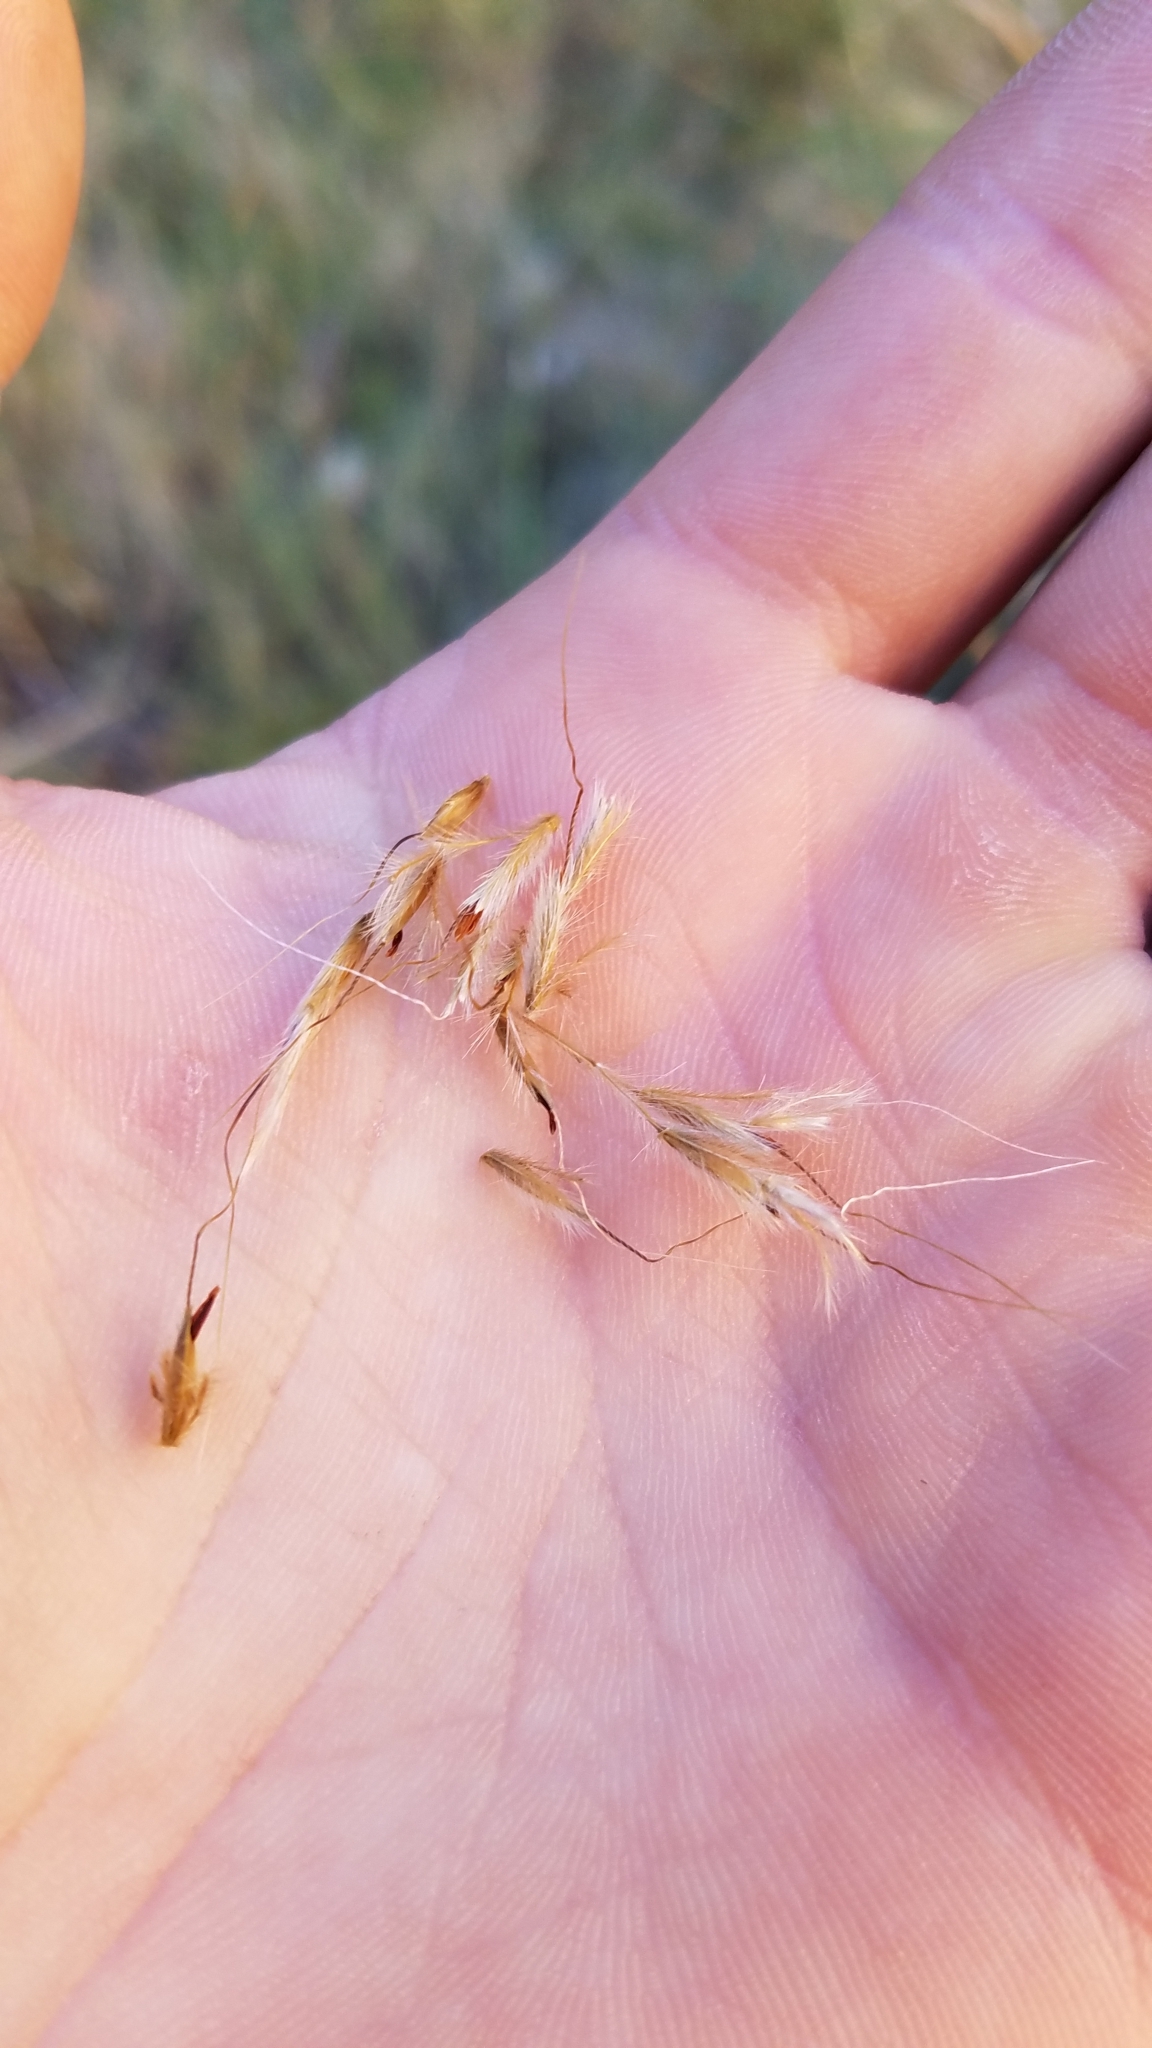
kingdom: Plantae
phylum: Tracheophyta
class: Liliopsida
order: Poales
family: Poaceae
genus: Sorghastrum
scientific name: Sorghastrum nutans
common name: Indian grass
